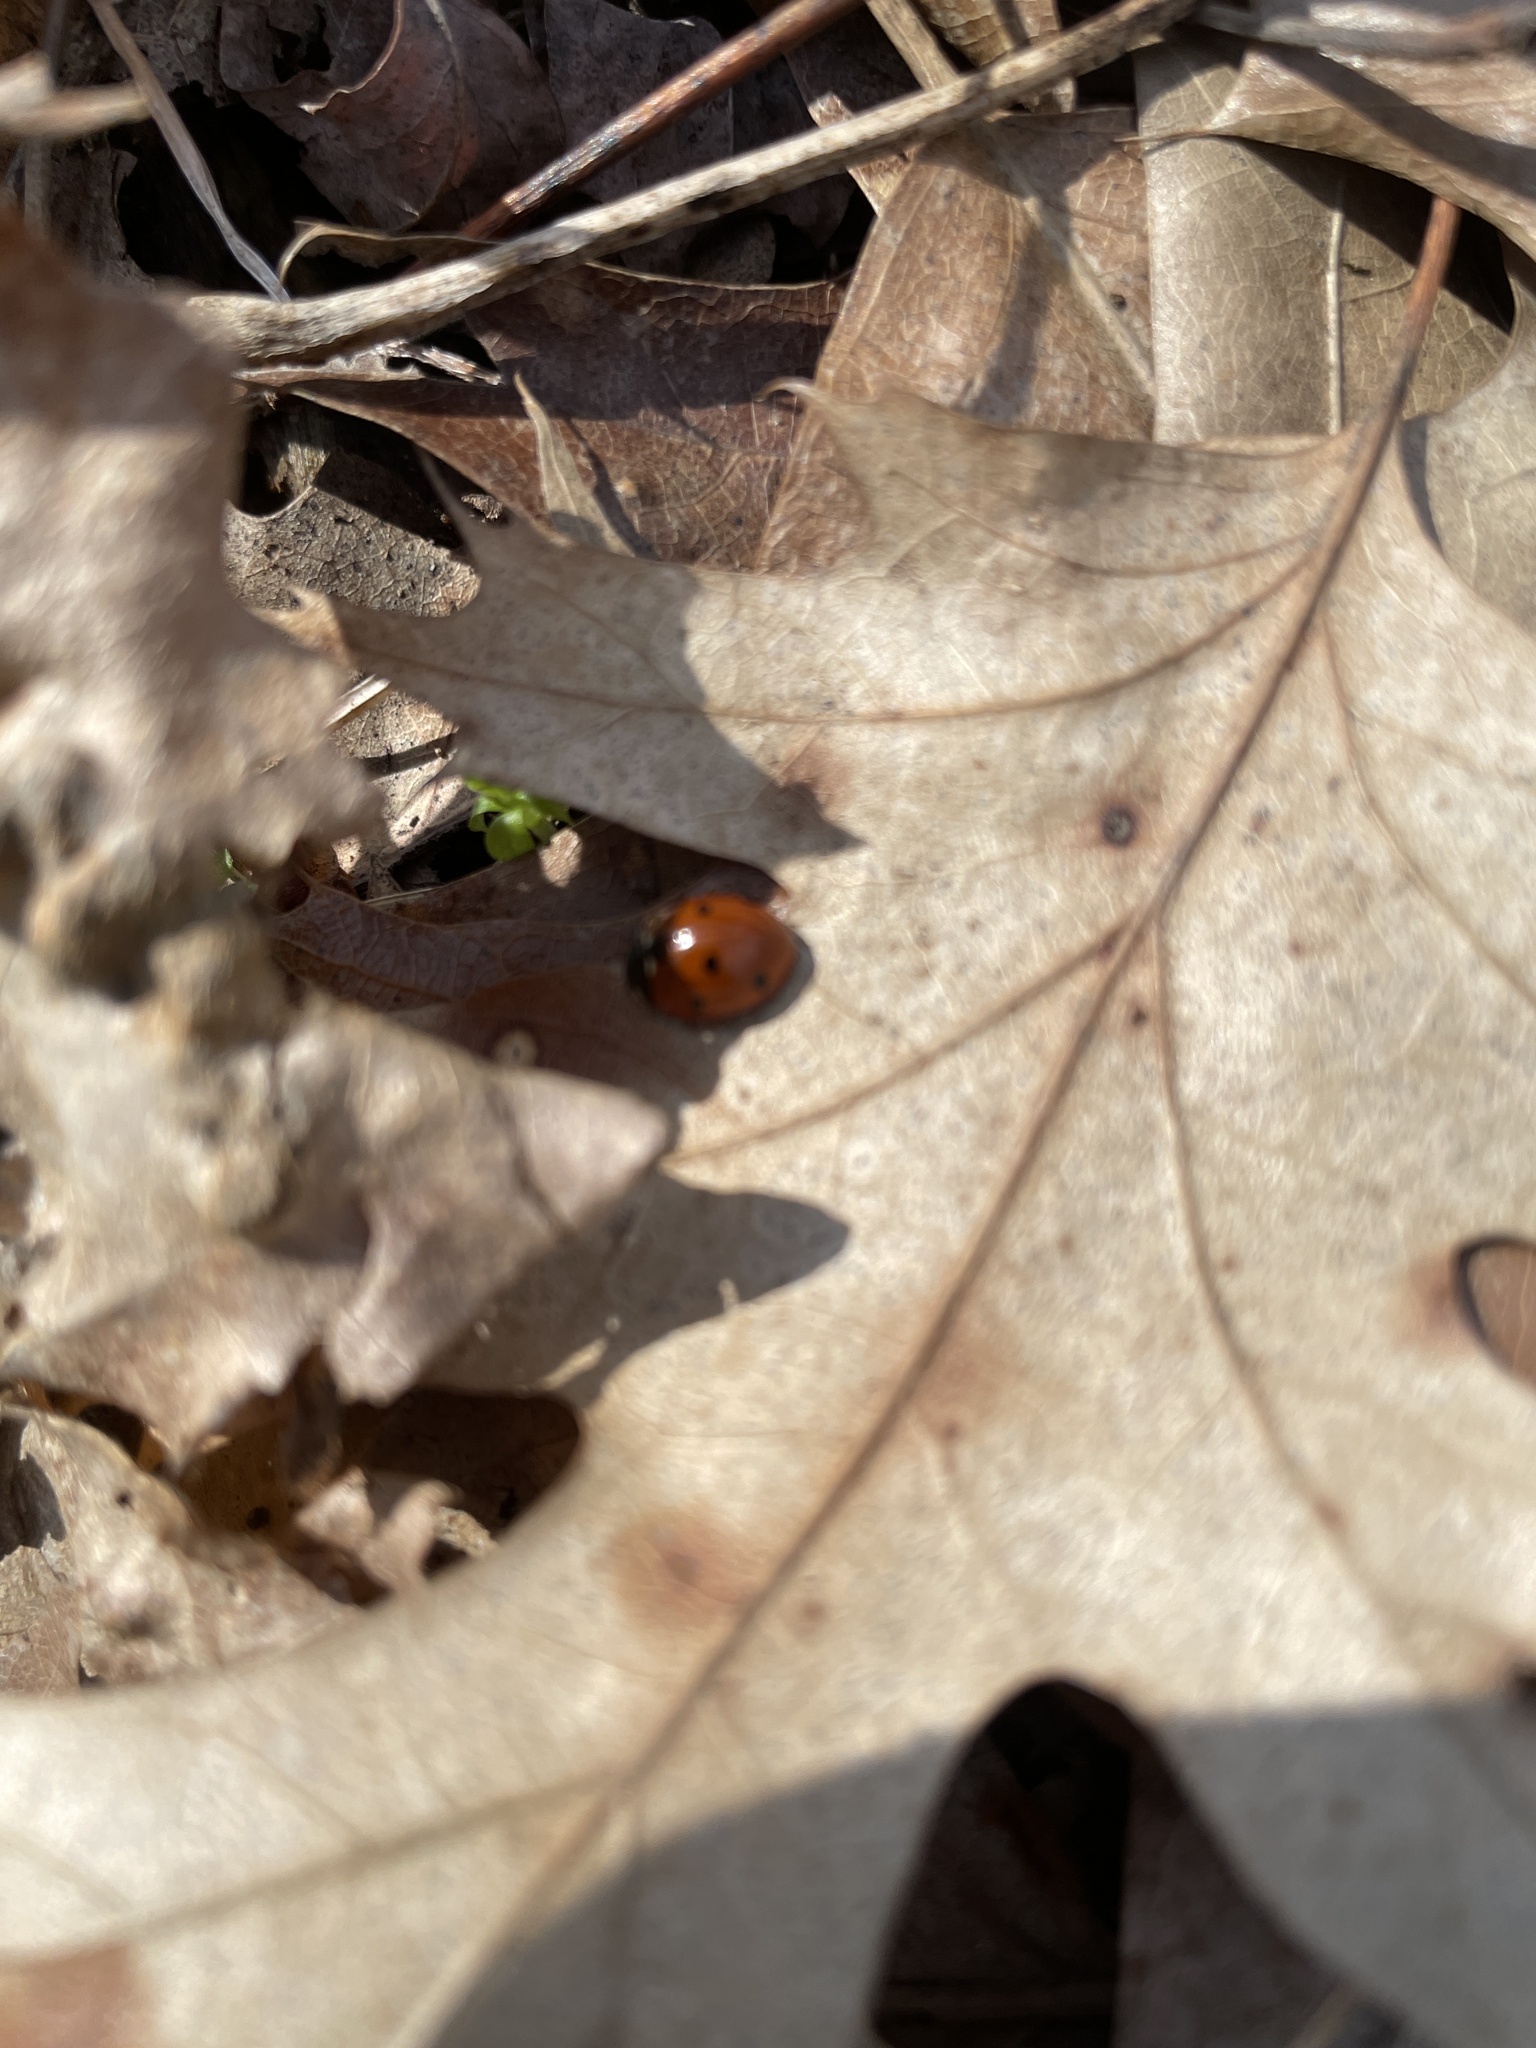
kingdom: Animalia
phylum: Arthropoda
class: Insecta
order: Coleoptera
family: Coccinellidae
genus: Coccinella
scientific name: Coccinella septempunctata
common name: Sevenspotted lady beetle
